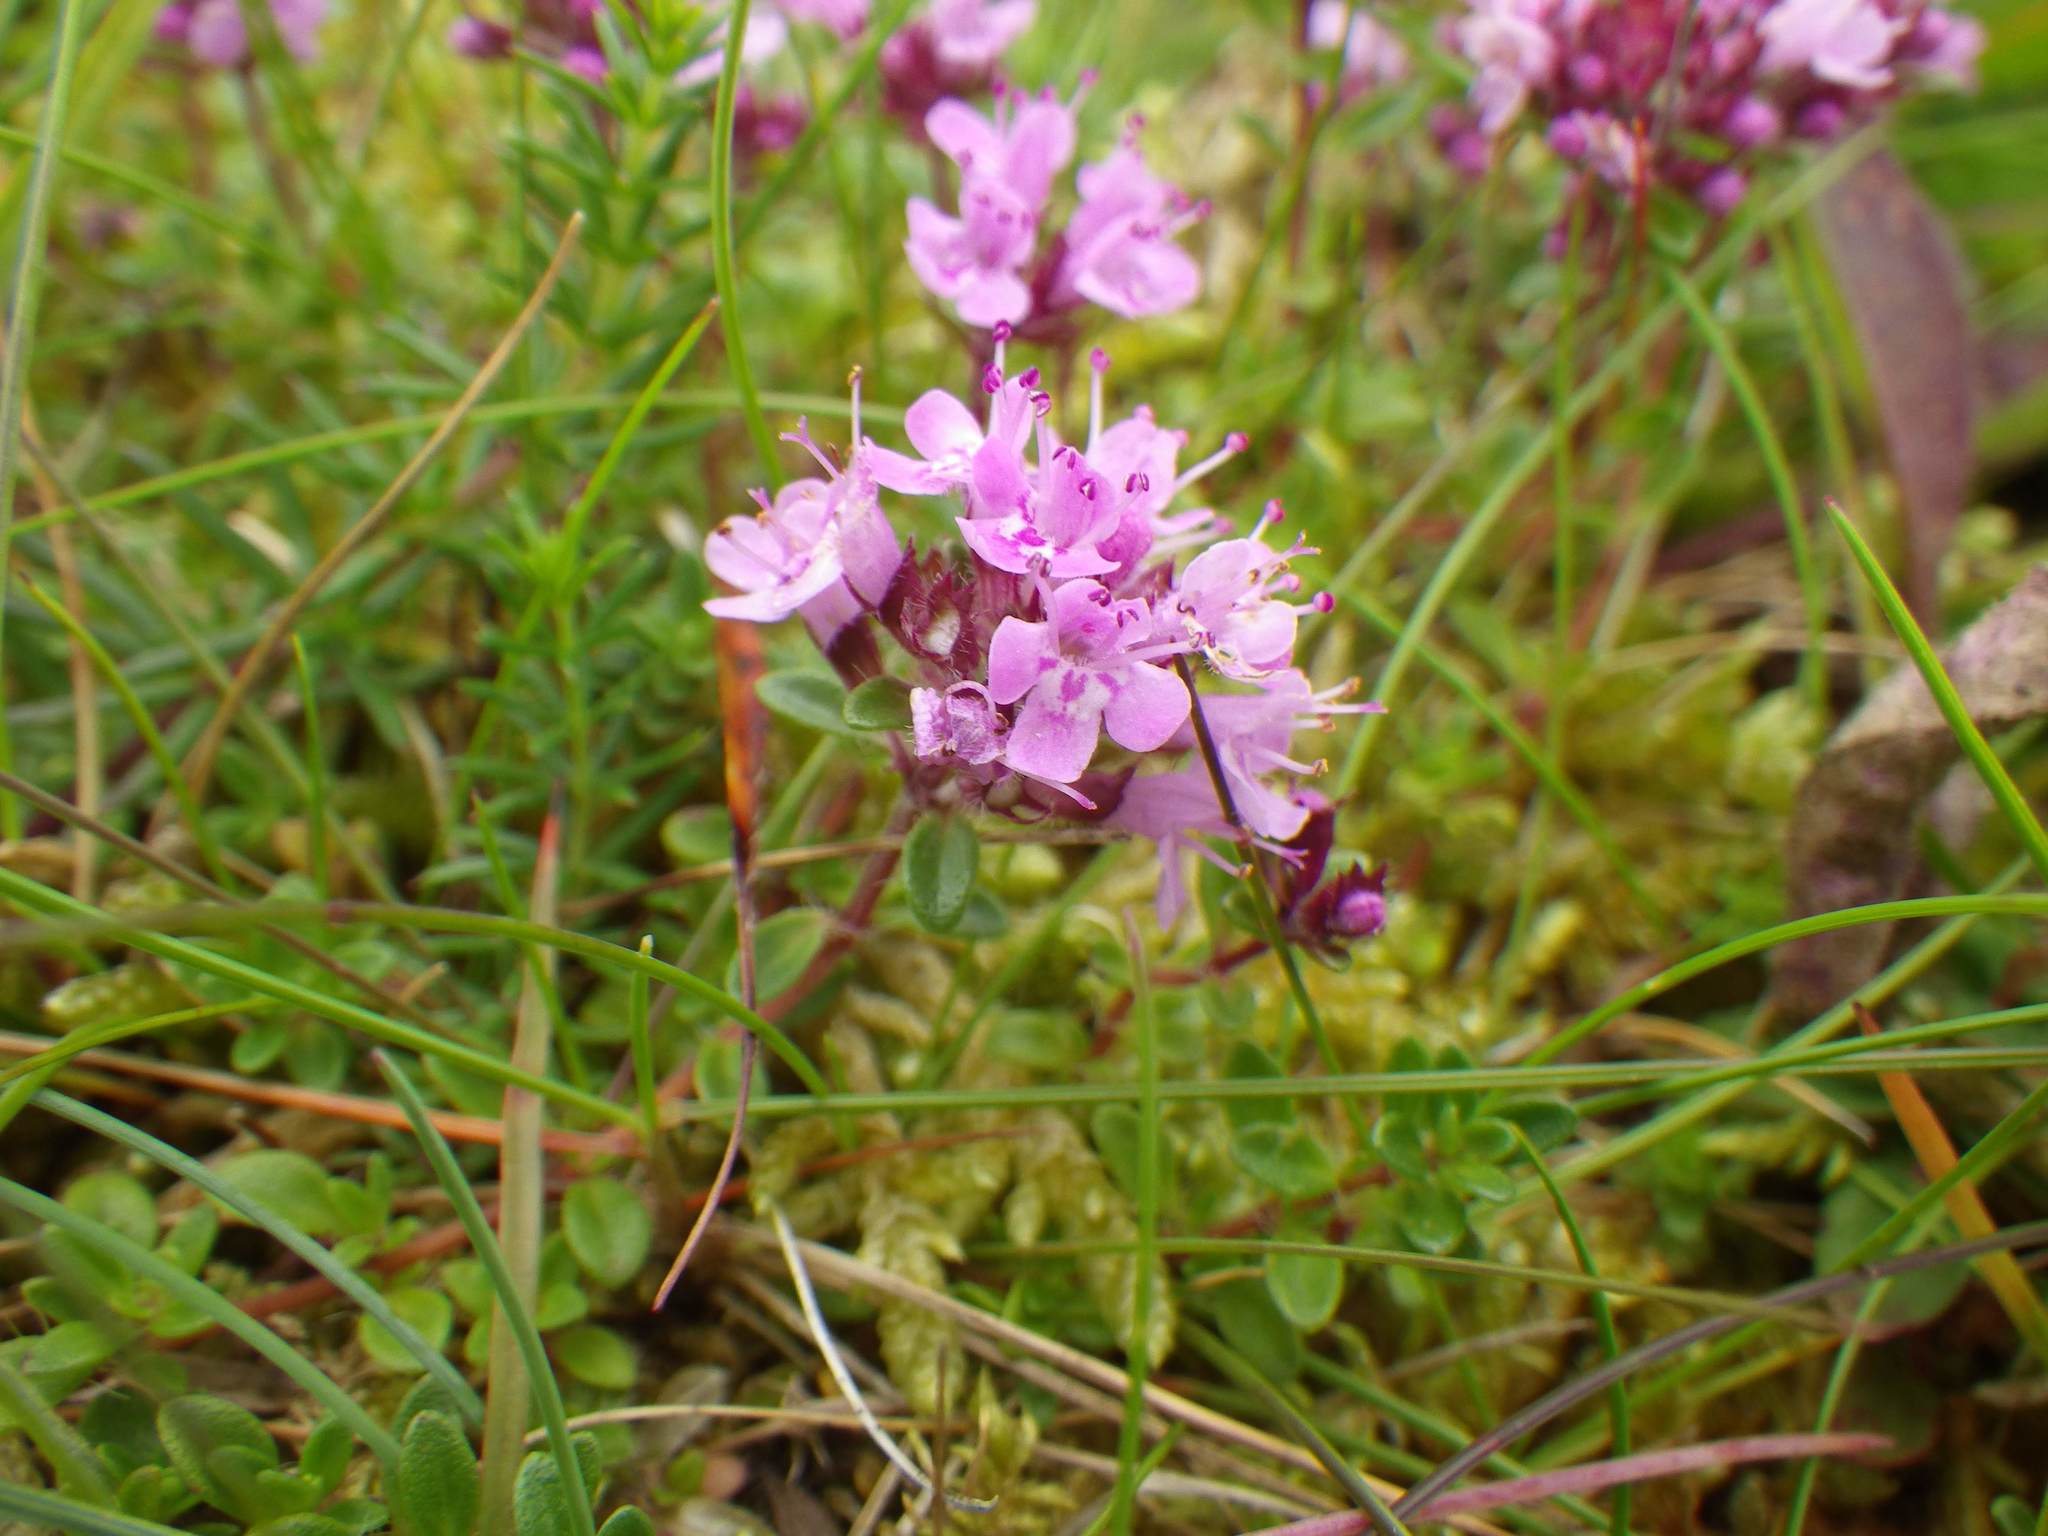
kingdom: Plantae
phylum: Tracheophyta
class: Magnoliopsida
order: Lamiales
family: Lamiaceae
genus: Thymus
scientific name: Thymus praecox
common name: Wild thyme
